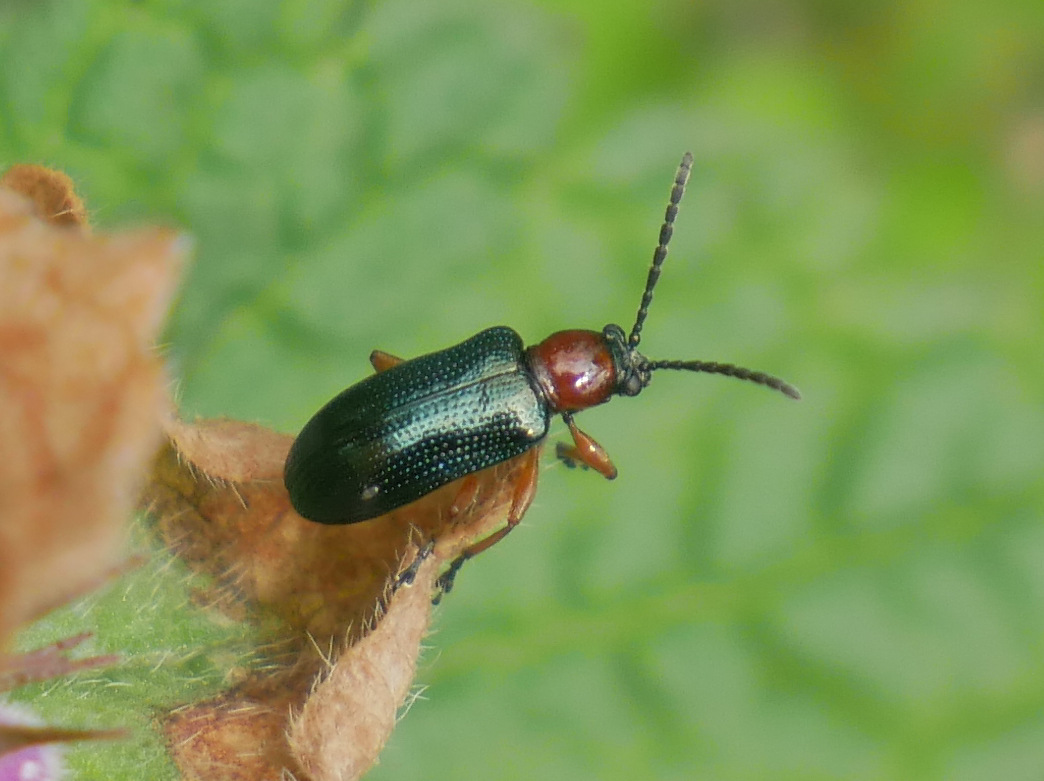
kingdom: Animalia
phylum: Arthropoda
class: Insecta
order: Coleoptera
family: Chrysomelidae
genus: Oulema
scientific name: Oulema
